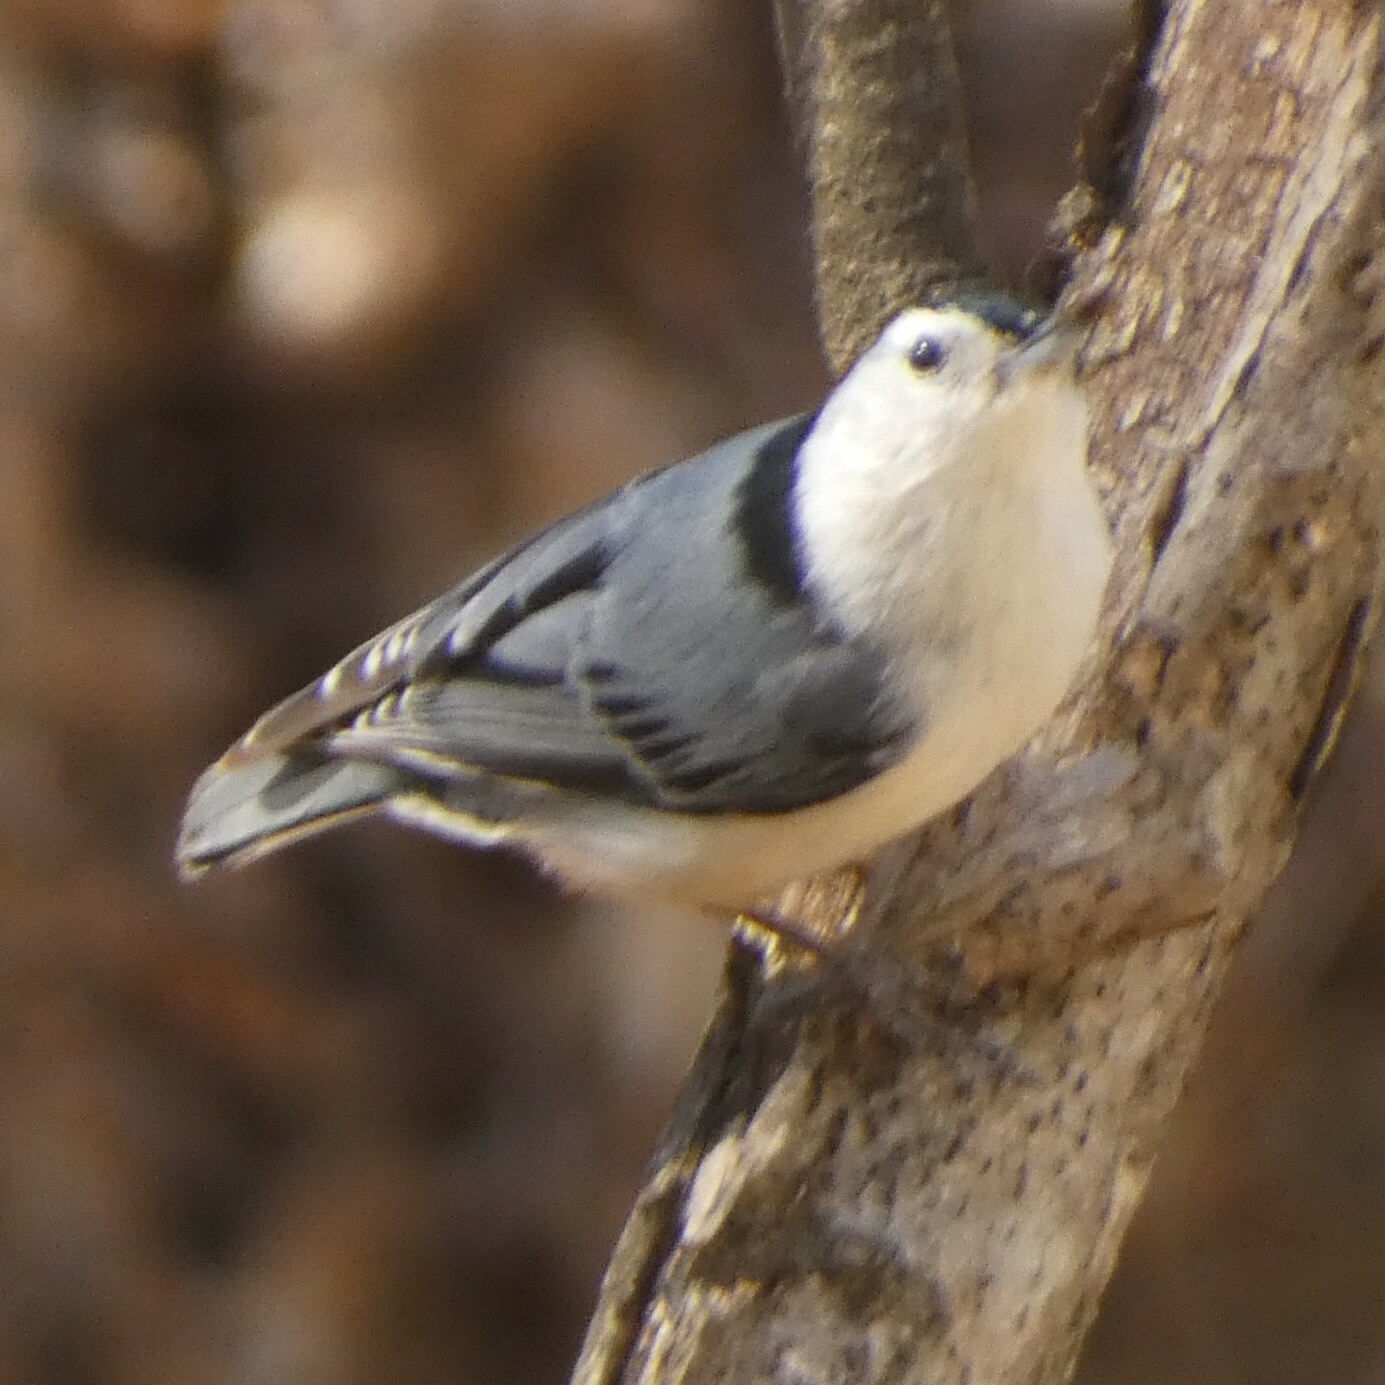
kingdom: Animalia
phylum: Chordata
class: Aves
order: Passeriformes
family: Sittidae
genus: Sitta
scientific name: Sitta carolinensis
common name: White-breasted nuthatch
